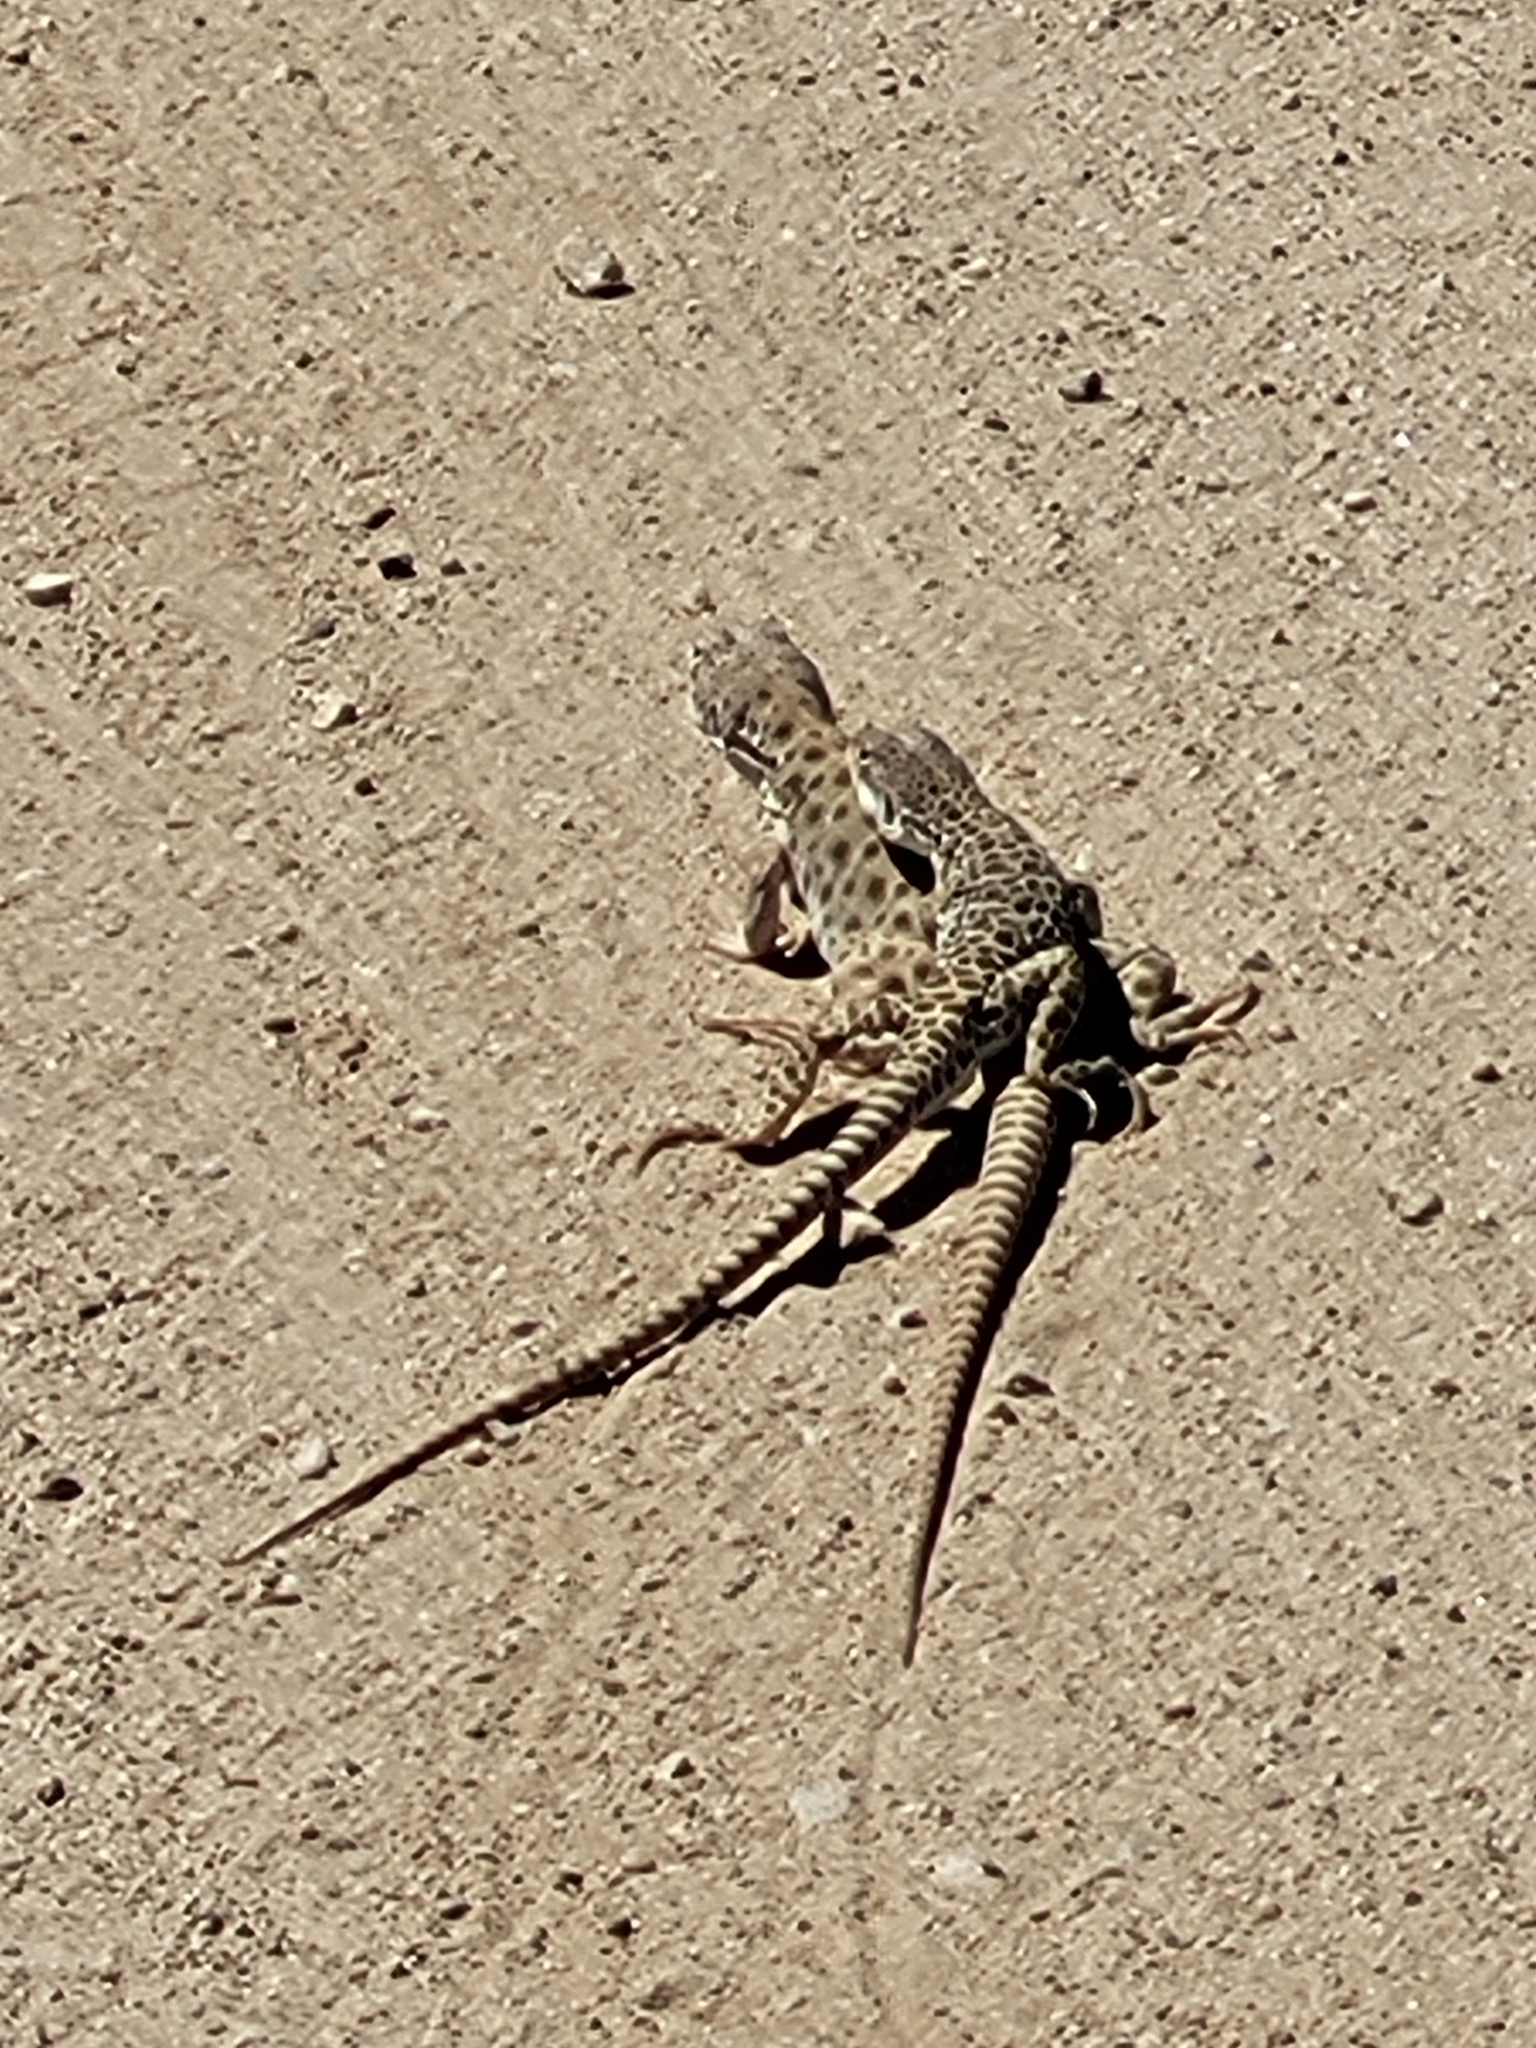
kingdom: Animalia
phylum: Chordata
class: Squamata
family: Crotaphytidae
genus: Gambelia
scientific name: Gambelia wislizenii
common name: Longnose leopard lizard
